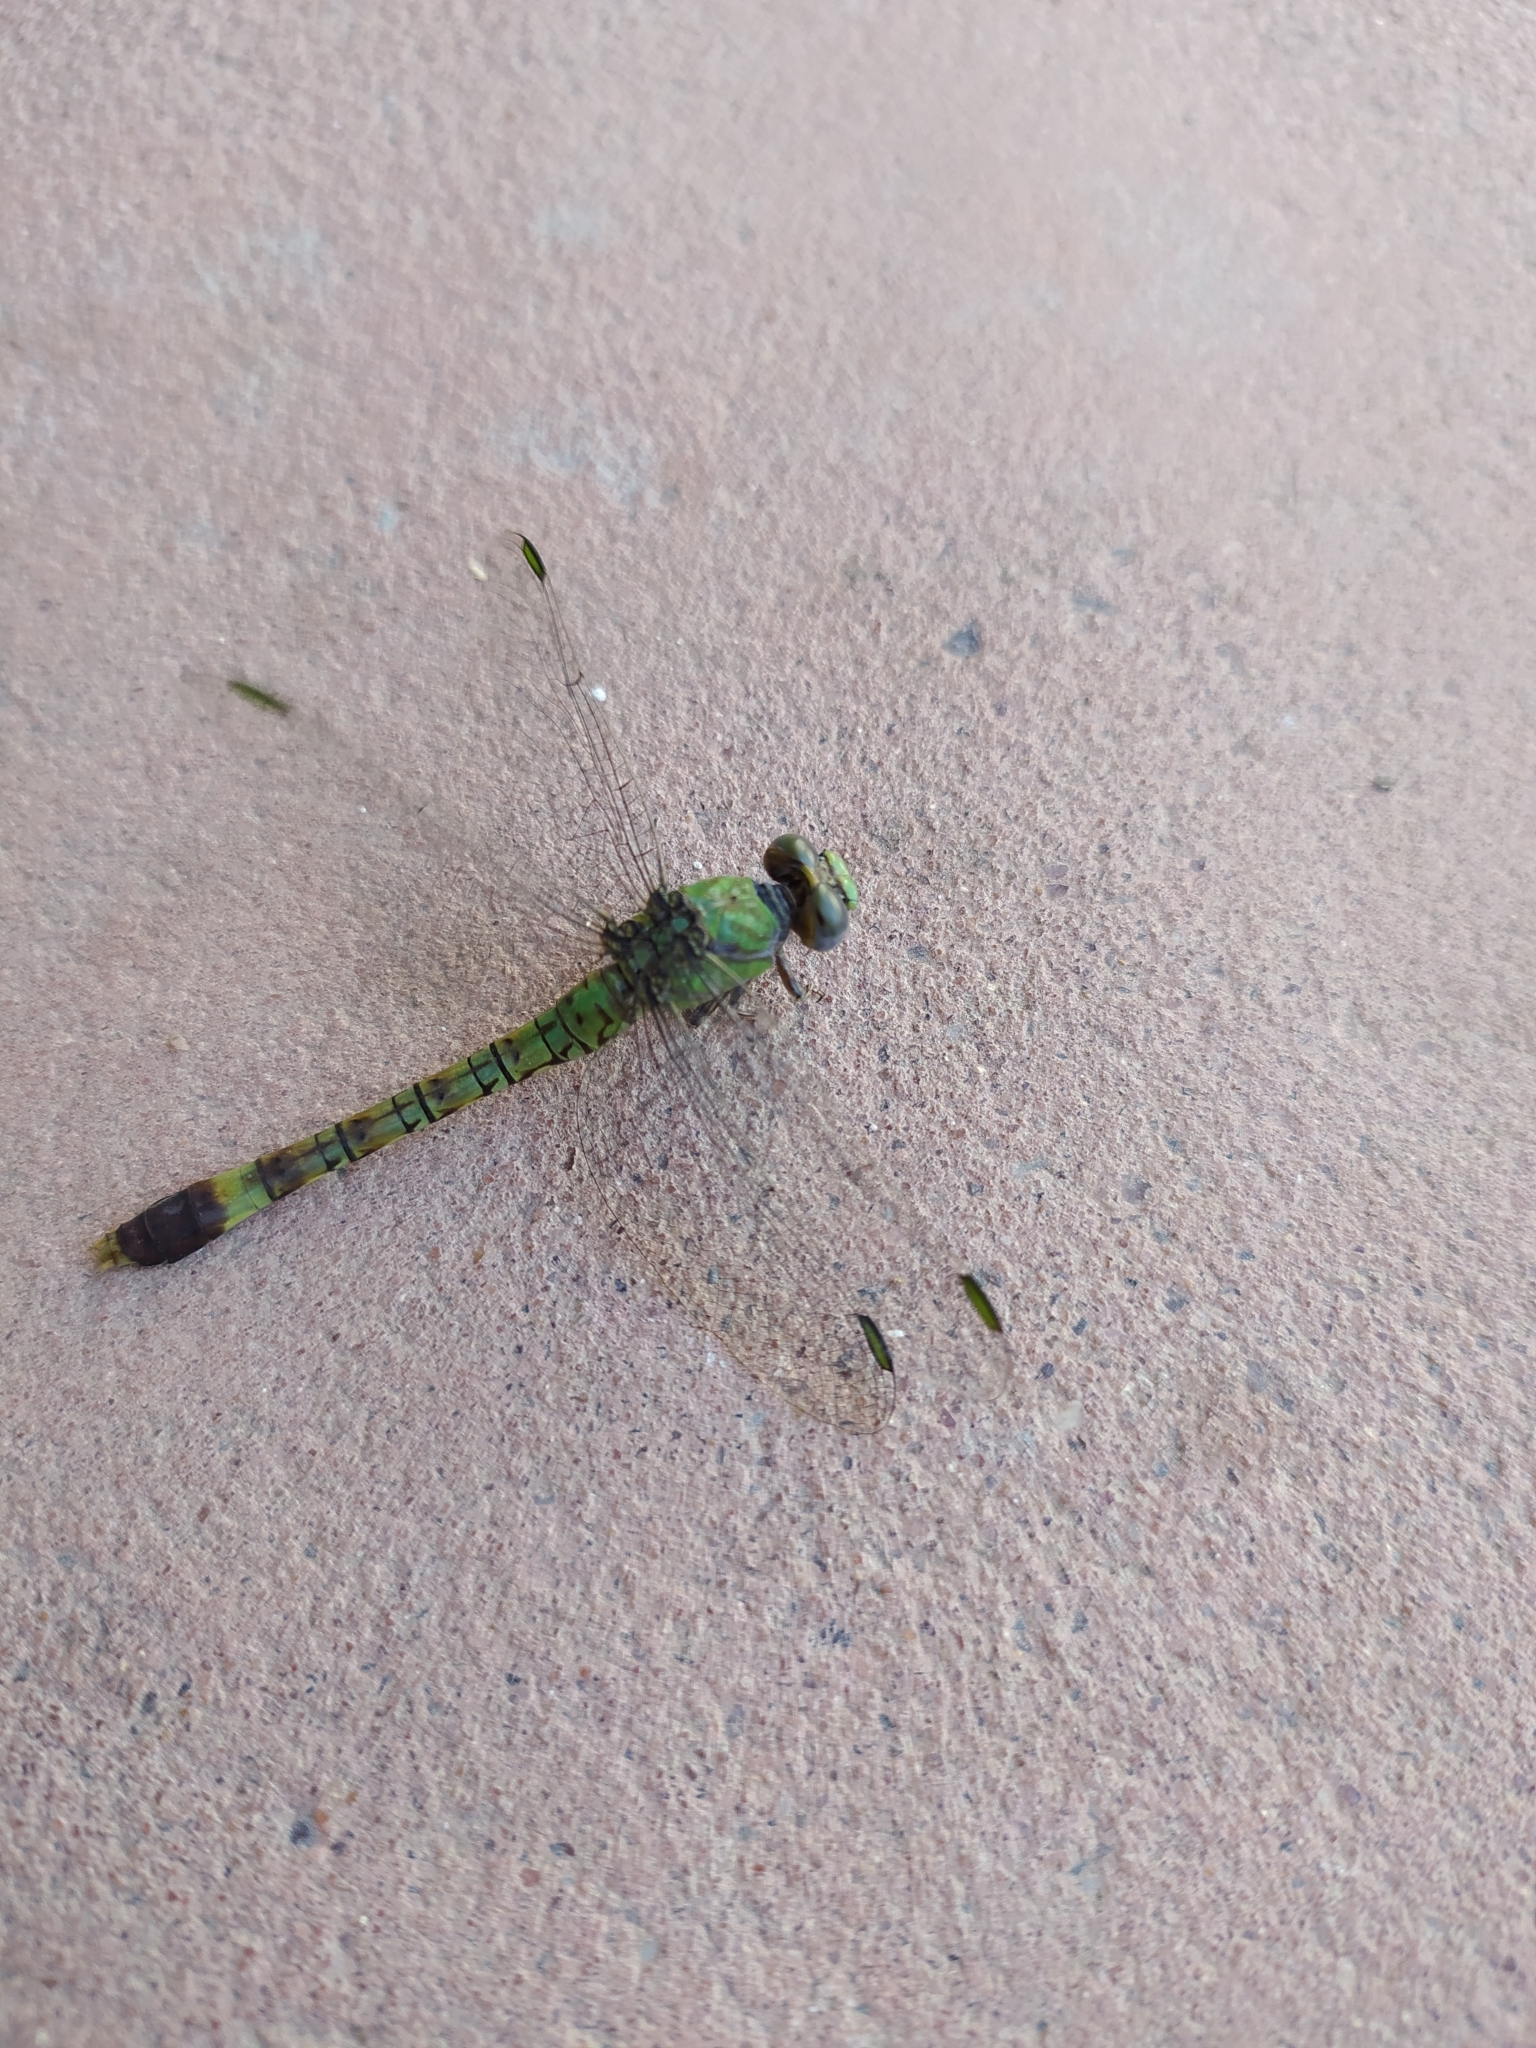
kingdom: Animalia
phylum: Arthropoda
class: Insecta
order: Odonata
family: Gomphidae
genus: Paragomphus
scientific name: Paragomphus genei
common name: Common hooktail
